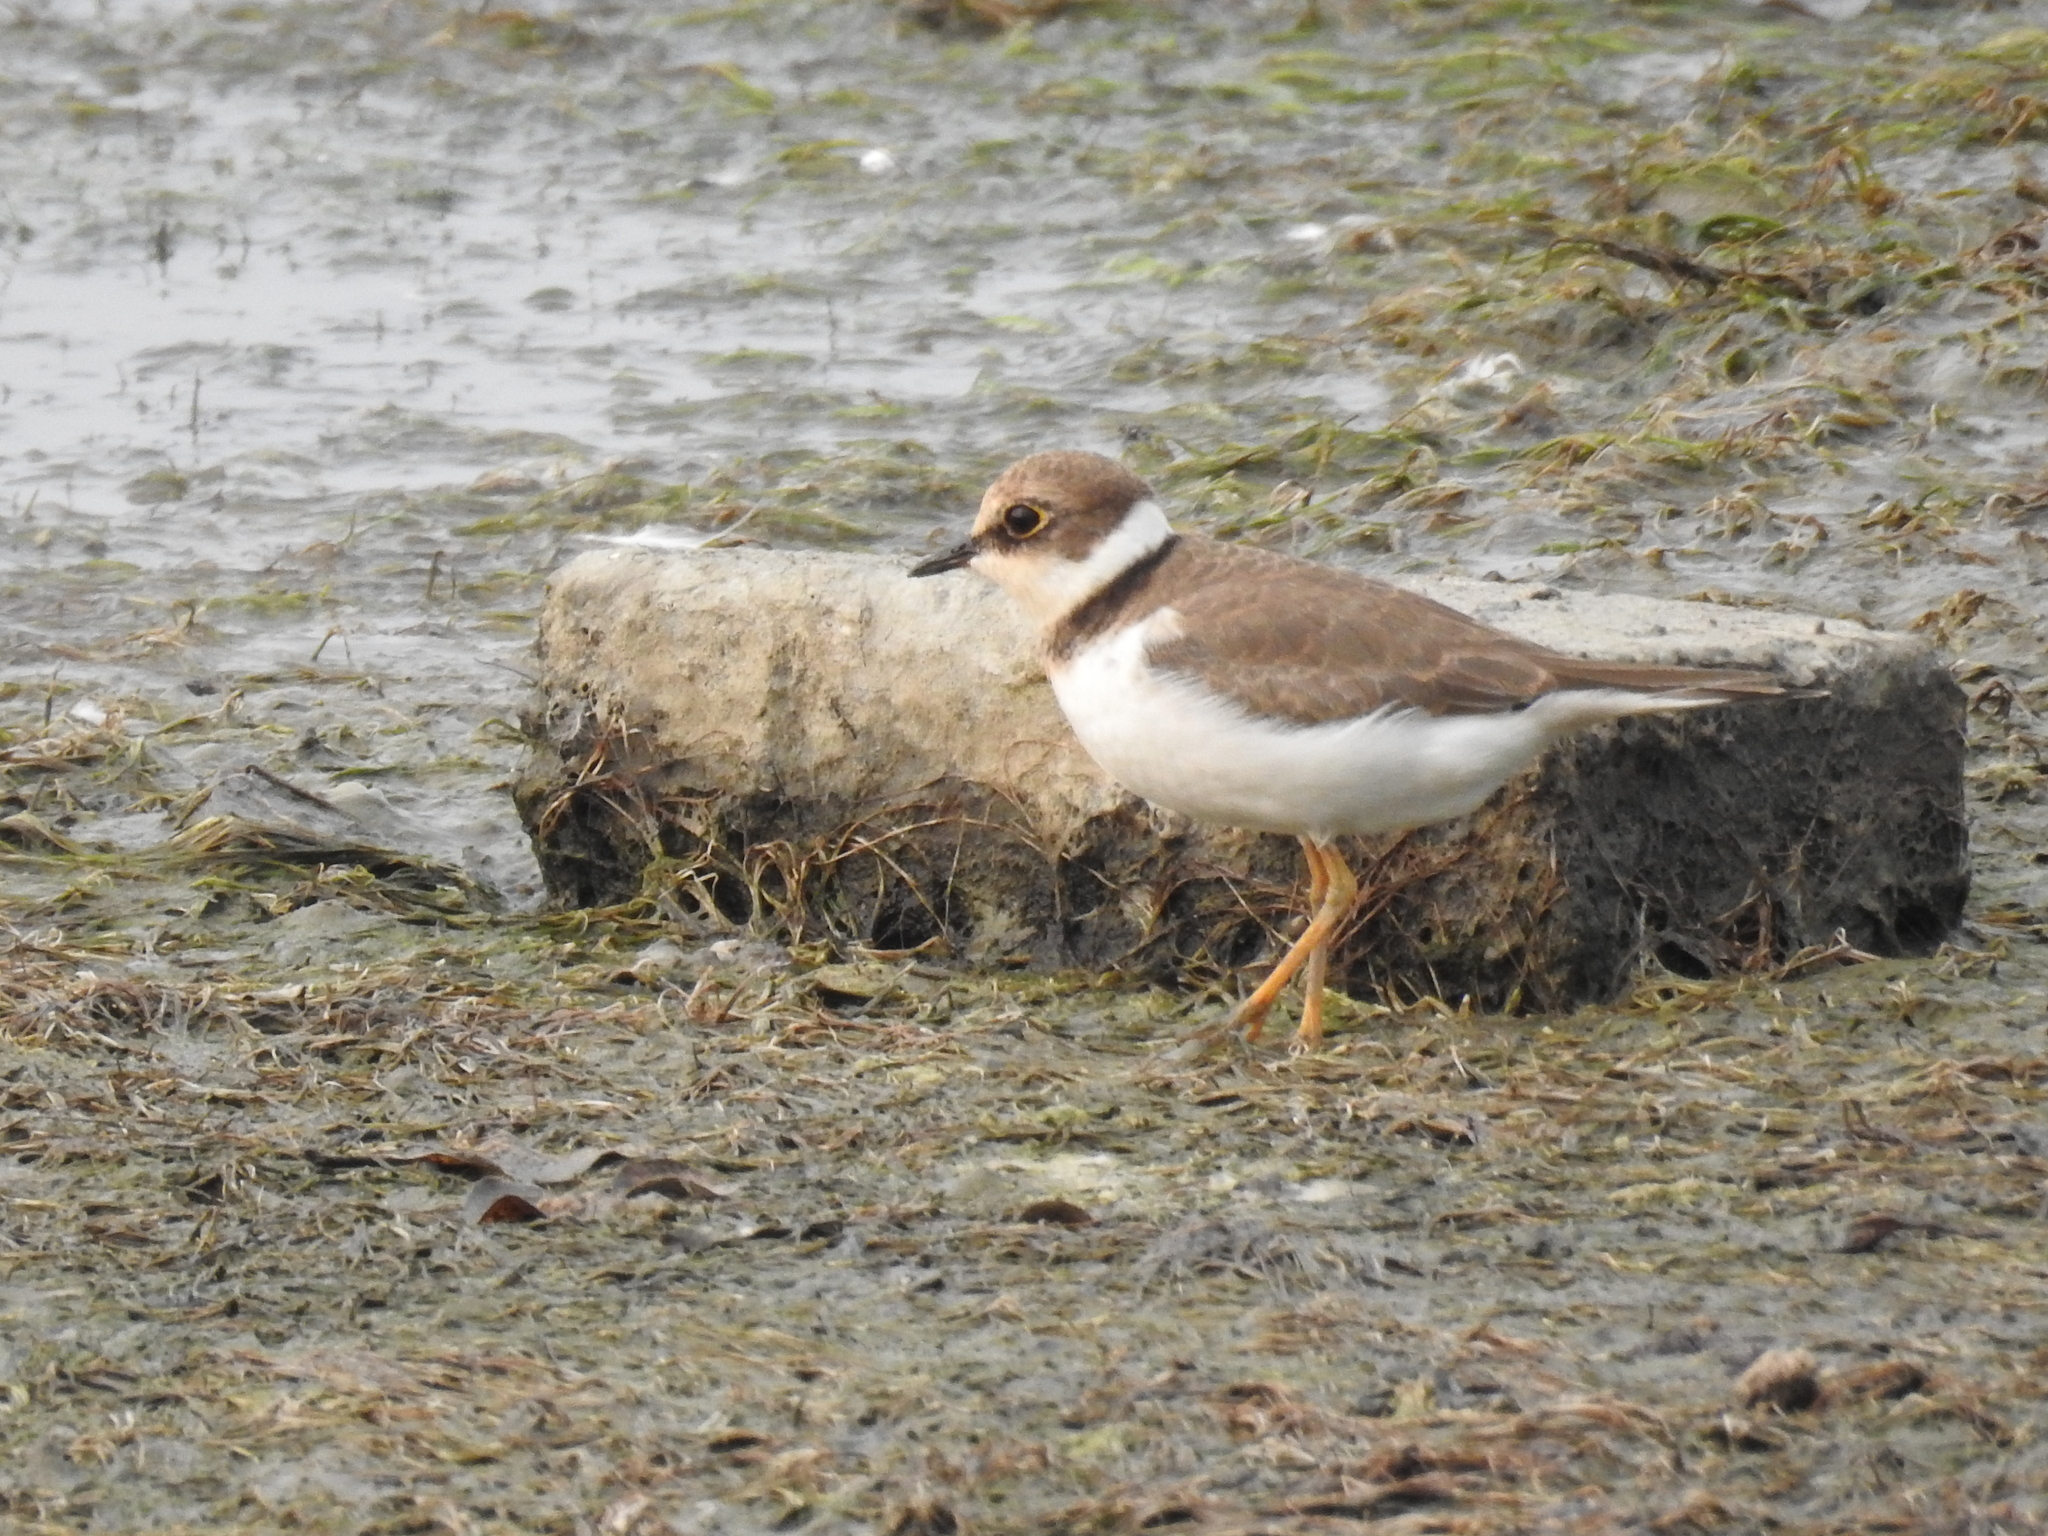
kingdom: Animalia
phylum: Chordata
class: Aves
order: Charadriiformes
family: Charadriidae
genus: Charadrius
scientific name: Charadrius dubius
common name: Little ringed plover
